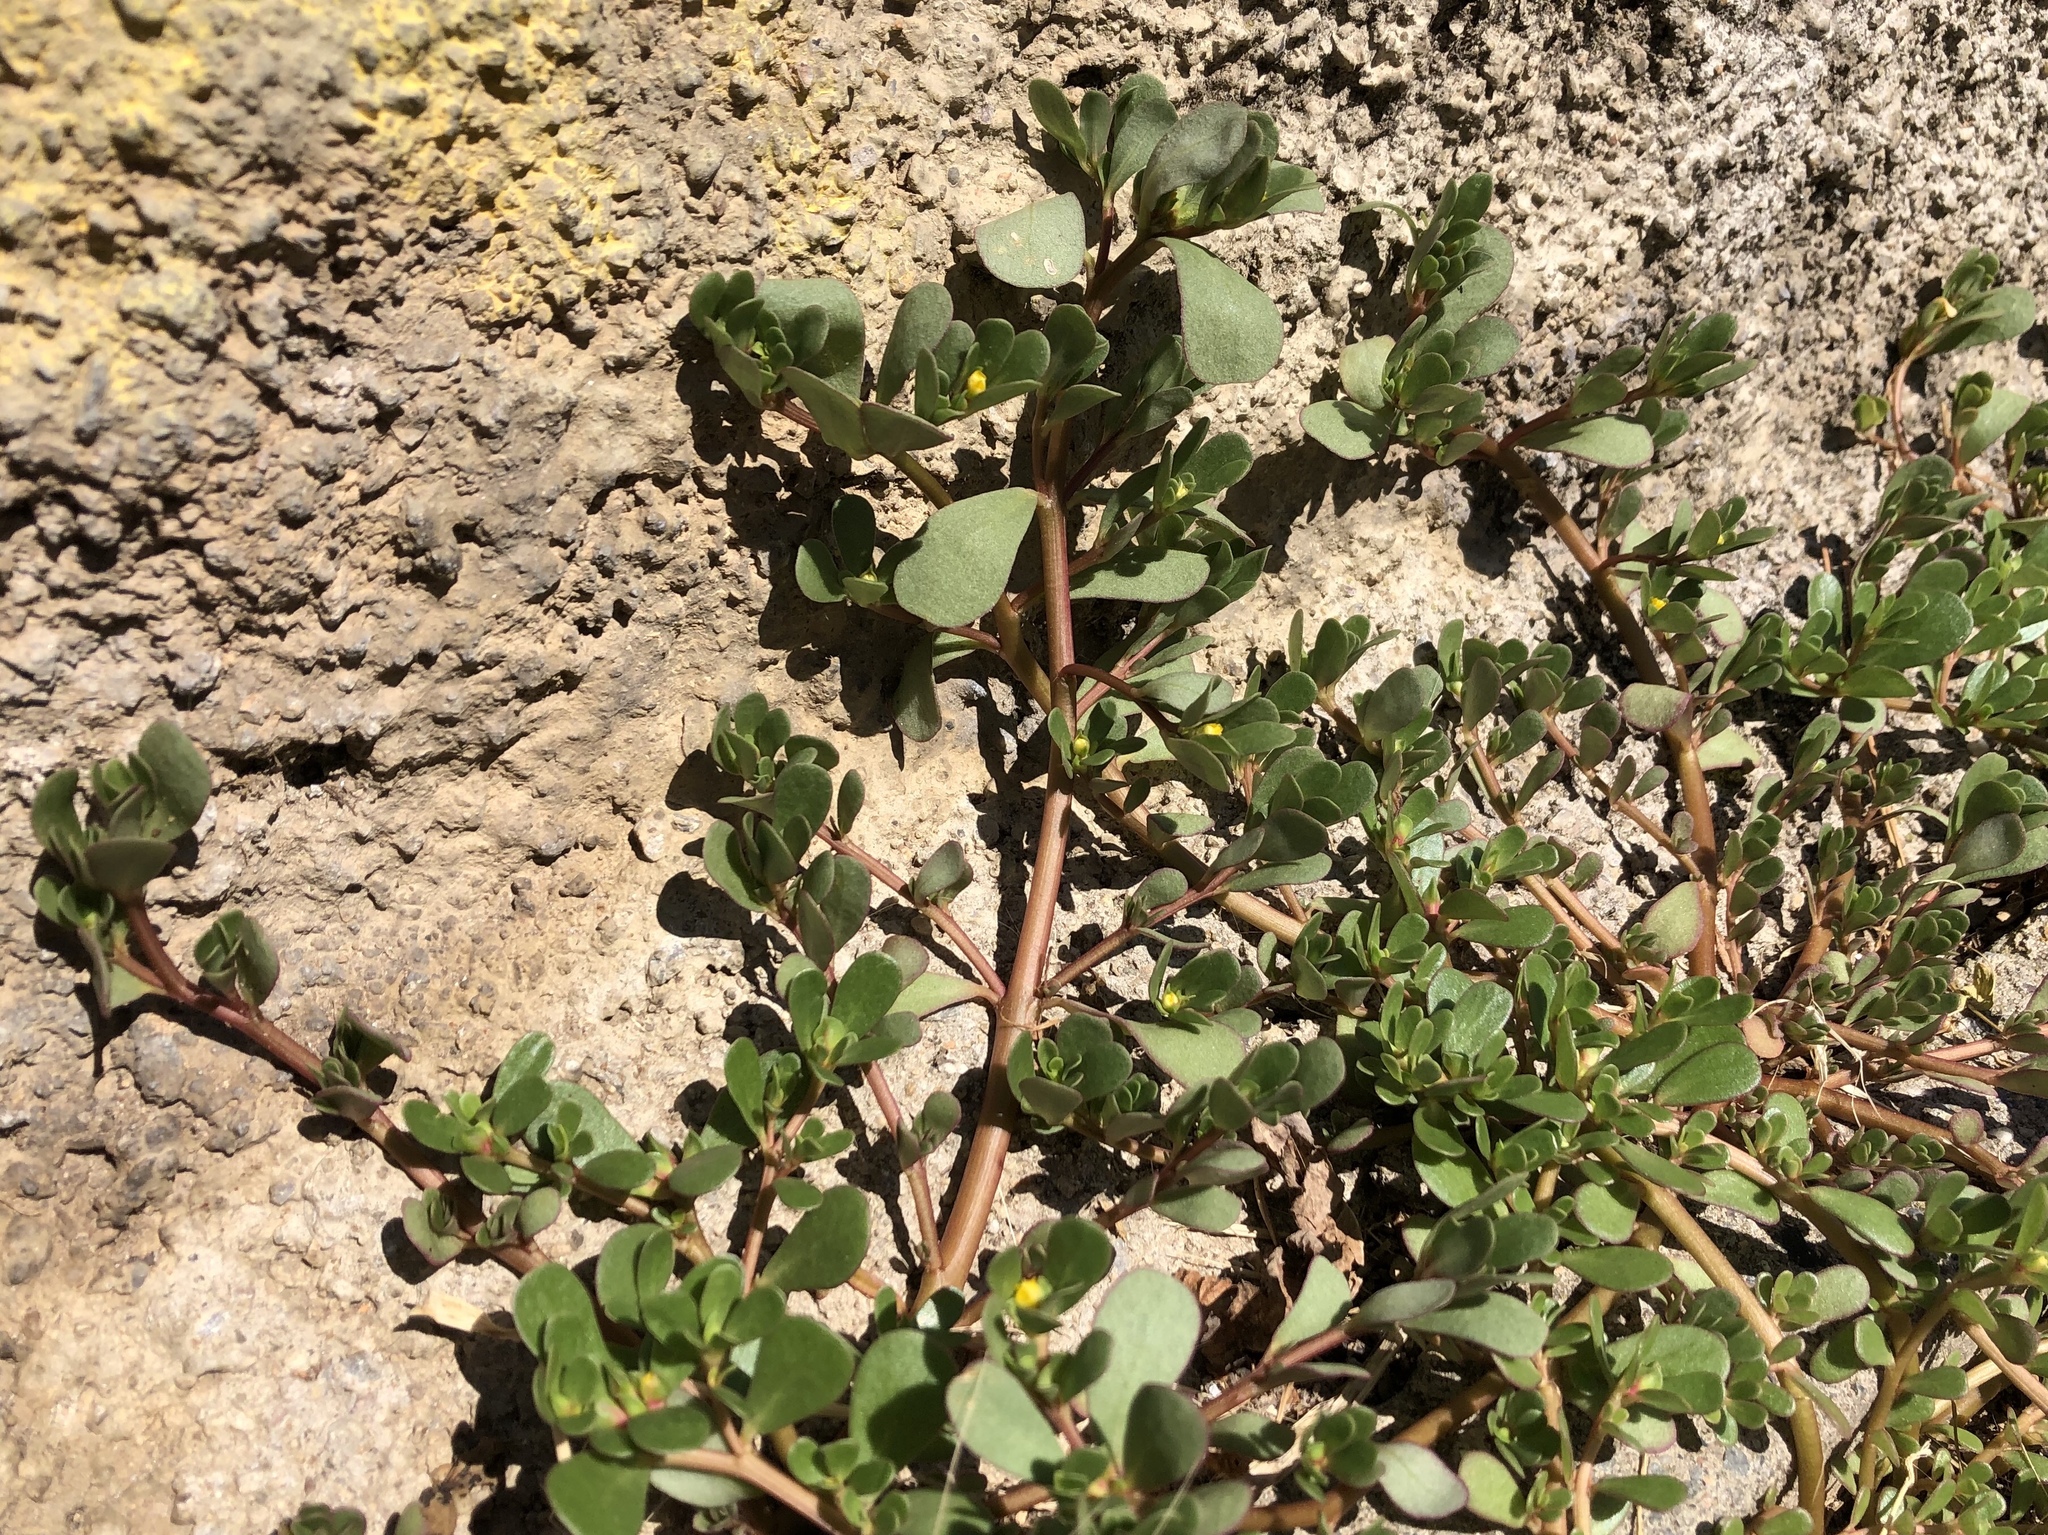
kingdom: Plantae
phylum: Tracheophyta
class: Magnoliopsida
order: Caryophyllales
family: Portulacaceae
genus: Portulaca
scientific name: Portulaca oleracea
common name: Common purslane
